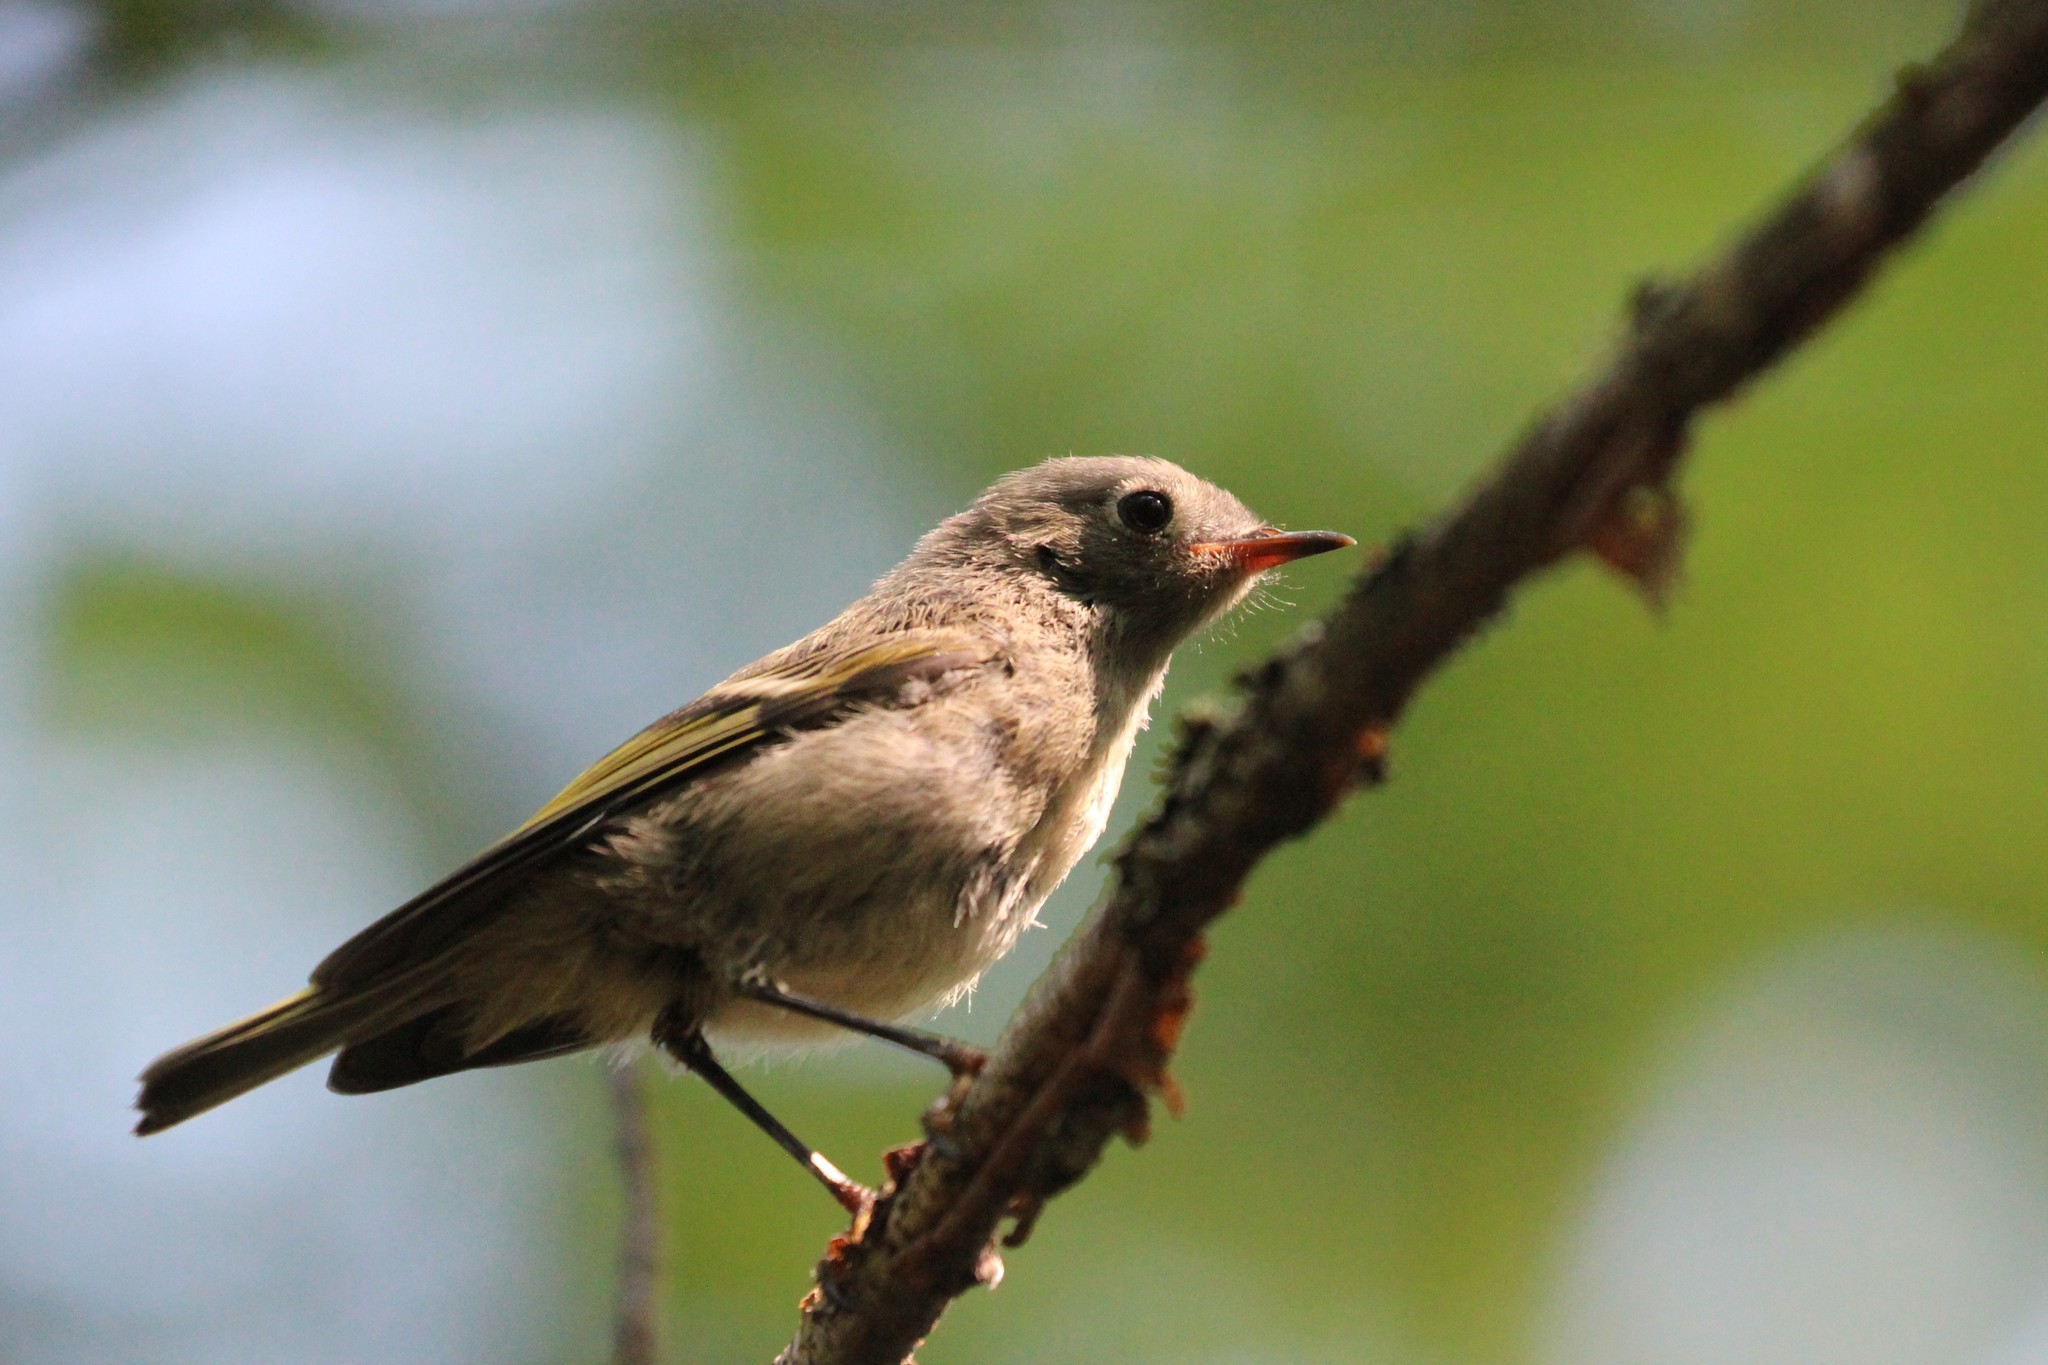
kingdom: Animalia
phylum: Chordata
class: Aves
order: Passeriformes
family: Regulidae
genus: Regulus
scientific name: Regulus calendula
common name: Ruby-crowned kinglet
